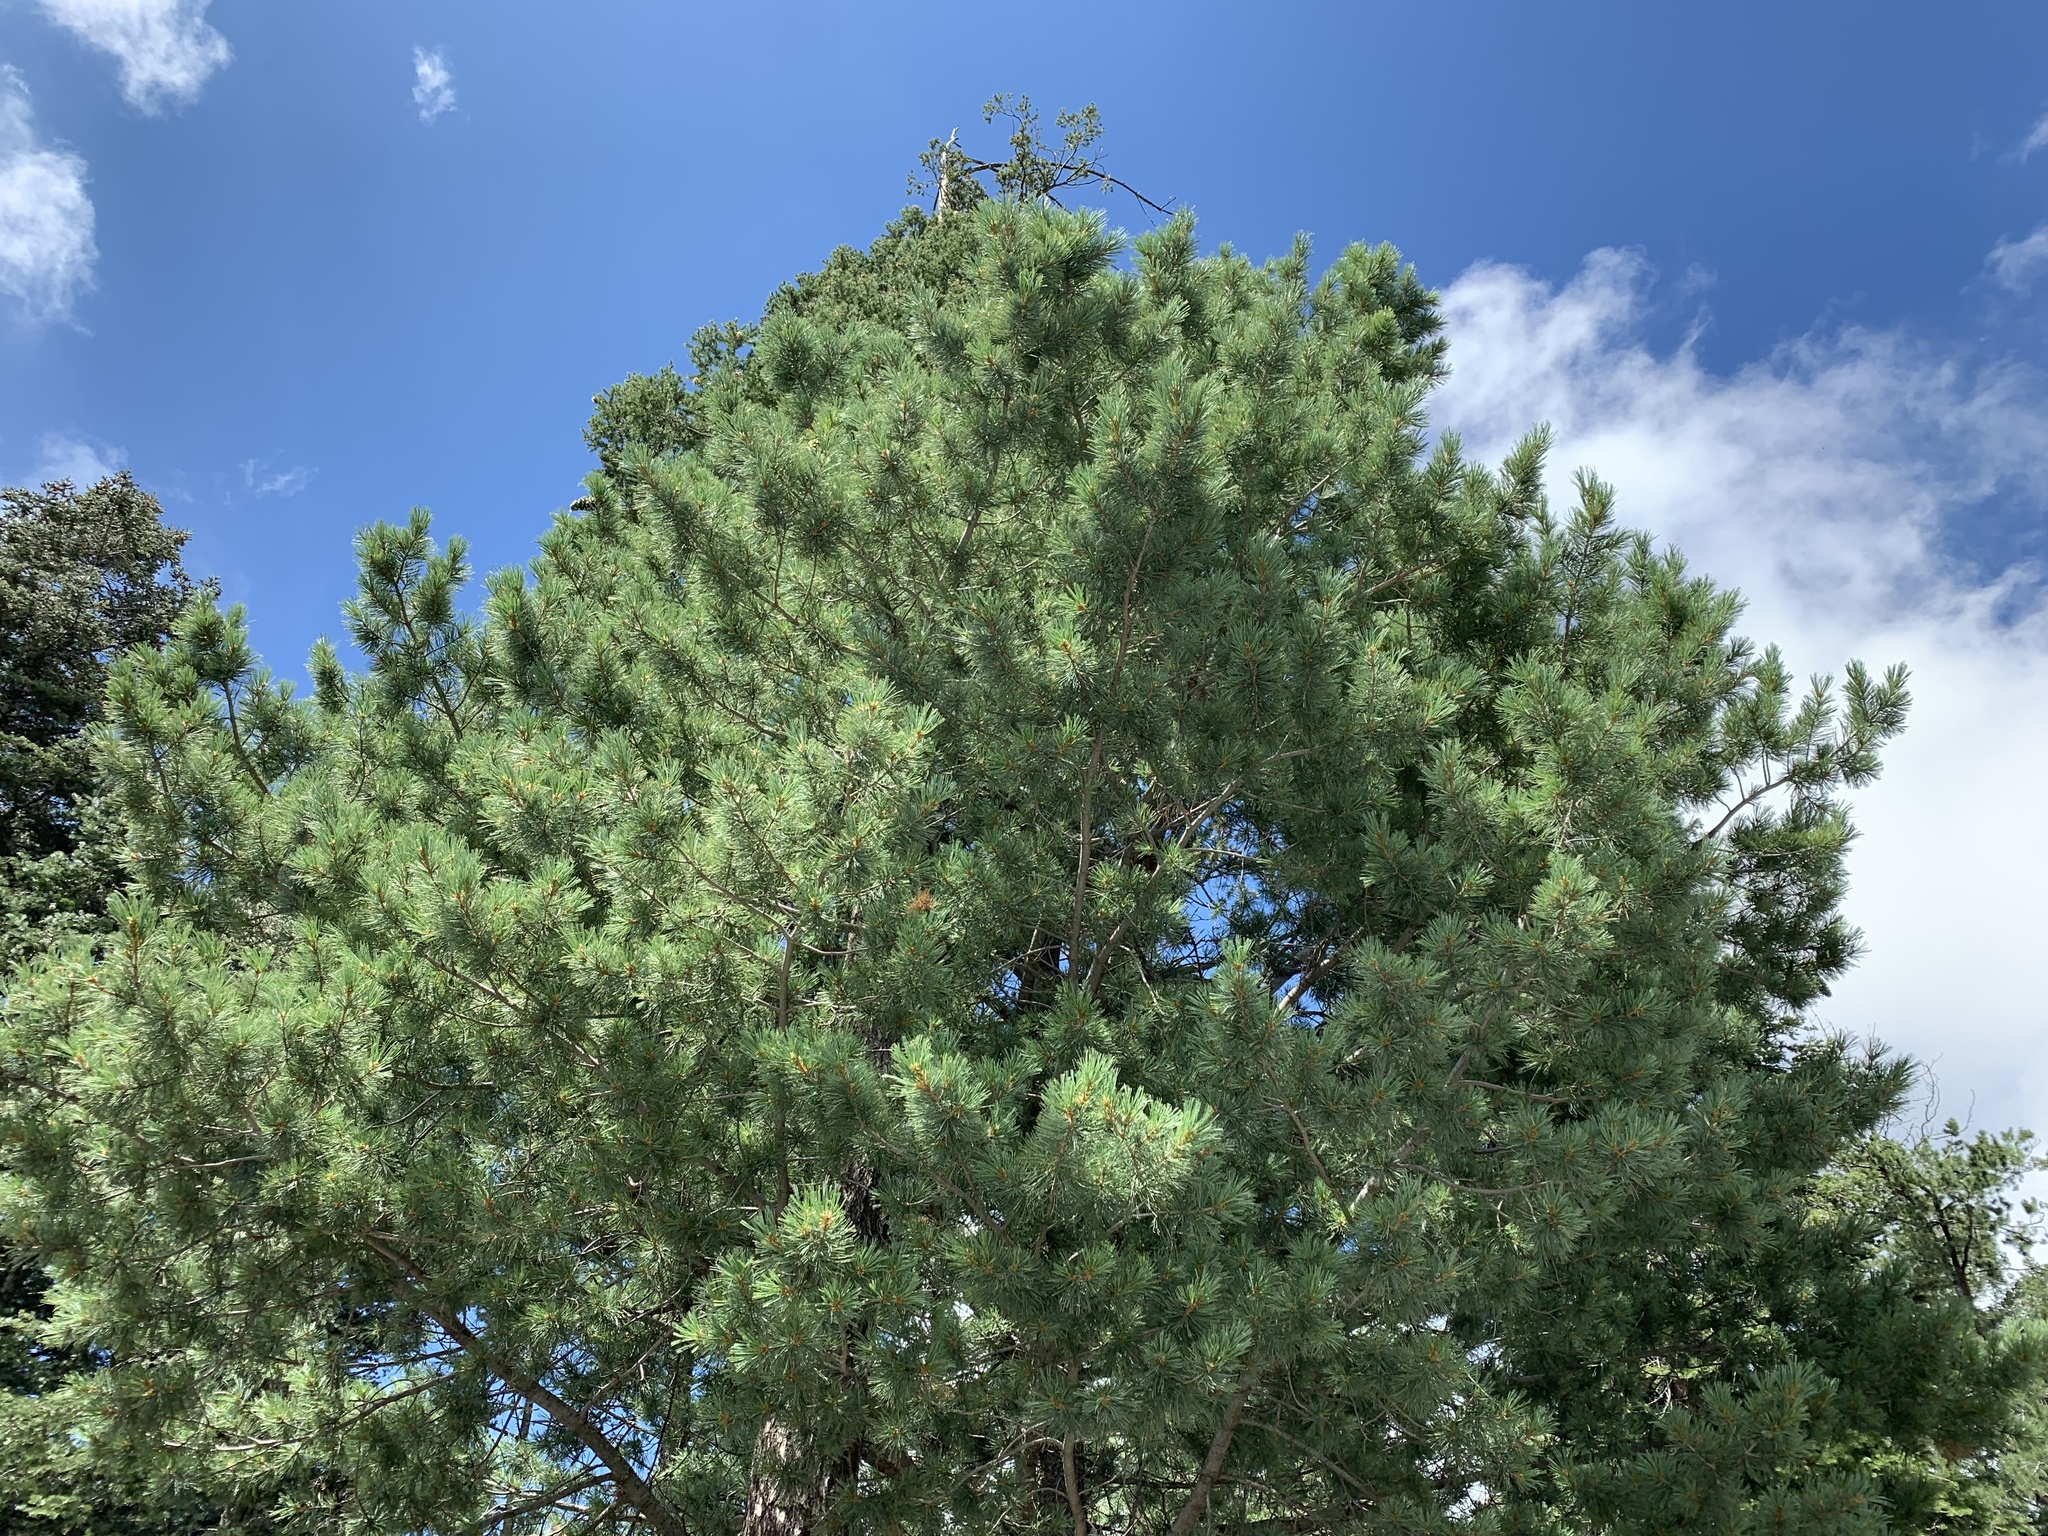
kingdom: Plantae
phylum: Tracheophyta
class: Pinopsida
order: Pinales
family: Pinaceae
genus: Pinus
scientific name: Pinus strobiformis
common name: Southwestern white pine
